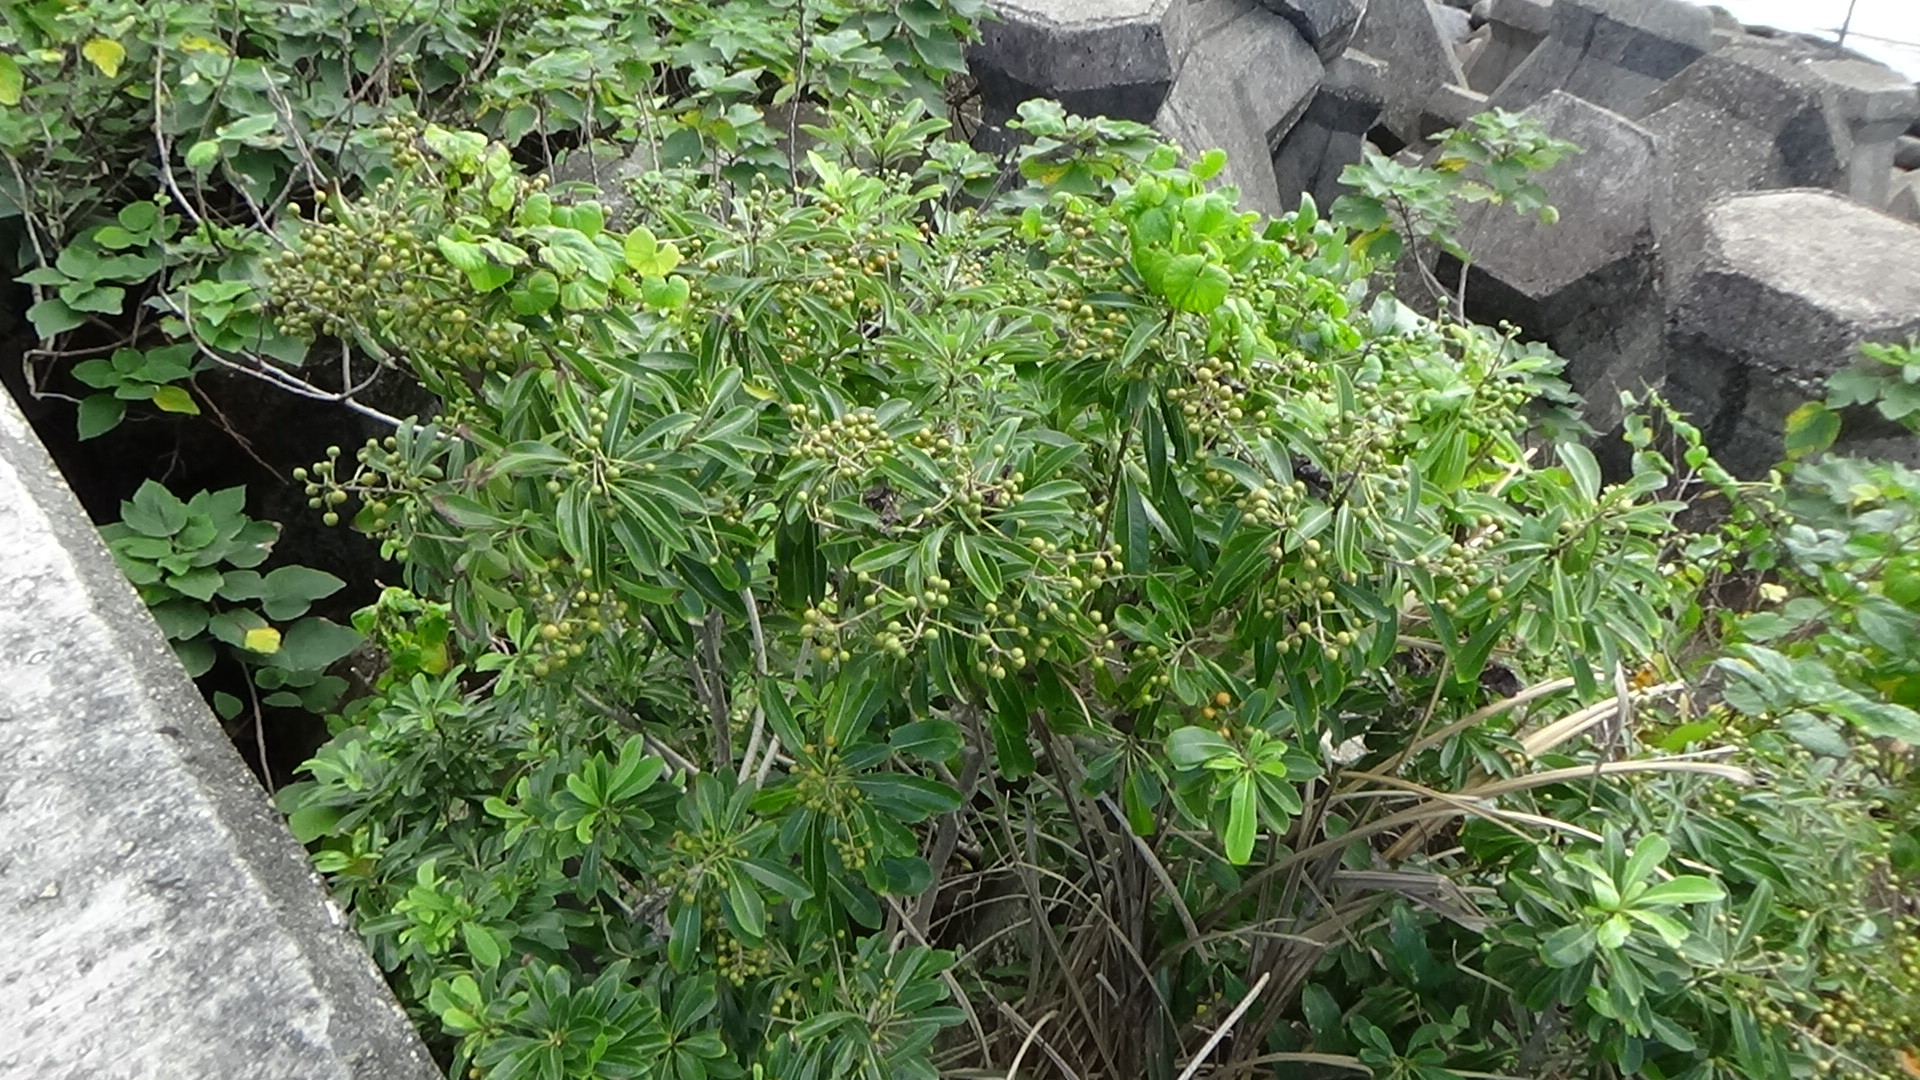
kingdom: Plantae
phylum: Tracheophyta
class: Magnoliopsida
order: Apiales
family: Pittosporaceae
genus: Pittosporum
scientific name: Pittosporum tobira
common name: Japanese cheesewood
